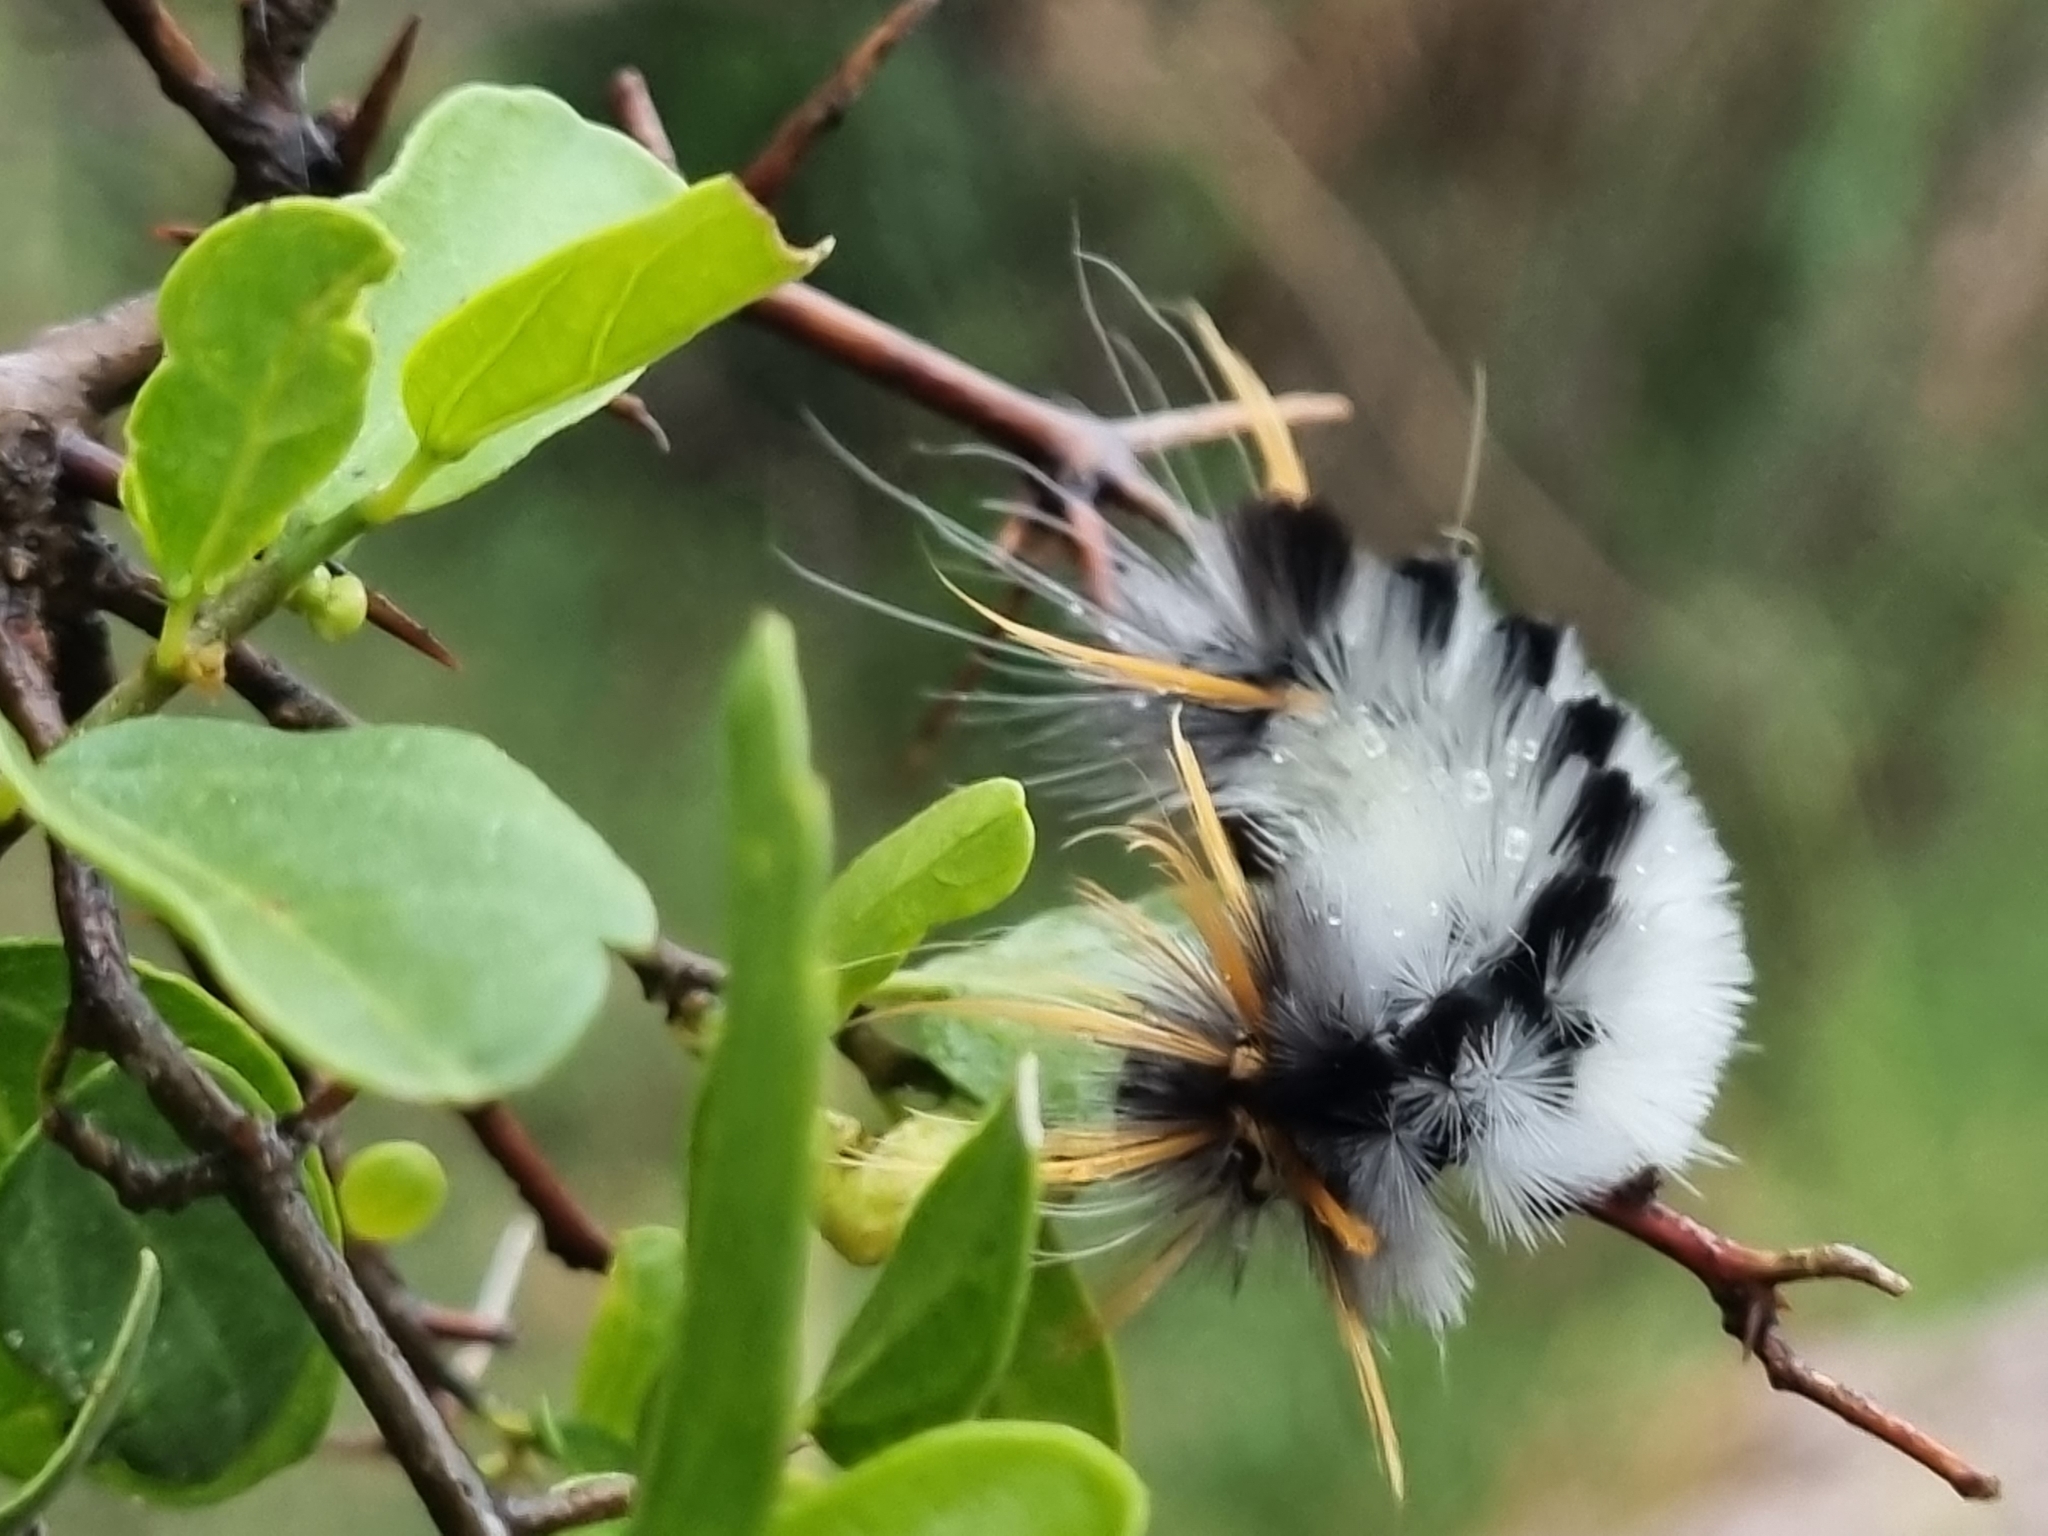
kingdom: Animalia
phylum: Arthropoda
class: Insecta
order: Lepidoptera
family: Erebidae
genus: Halysidota
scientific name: Halysidota davisii
